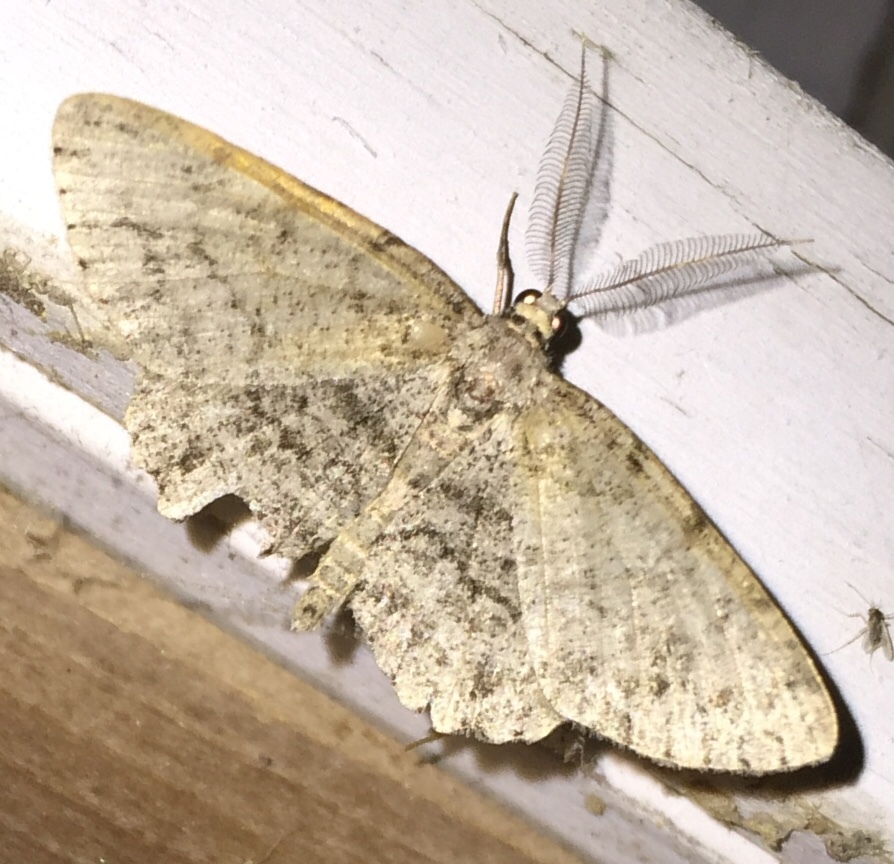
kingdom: Animalia
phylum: Arthropoda
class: Insecta
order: Lepidoptera
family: Geometridae
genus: Protoboarmia
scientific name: Protoboarmia porcelaria
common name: Porcelain gray
